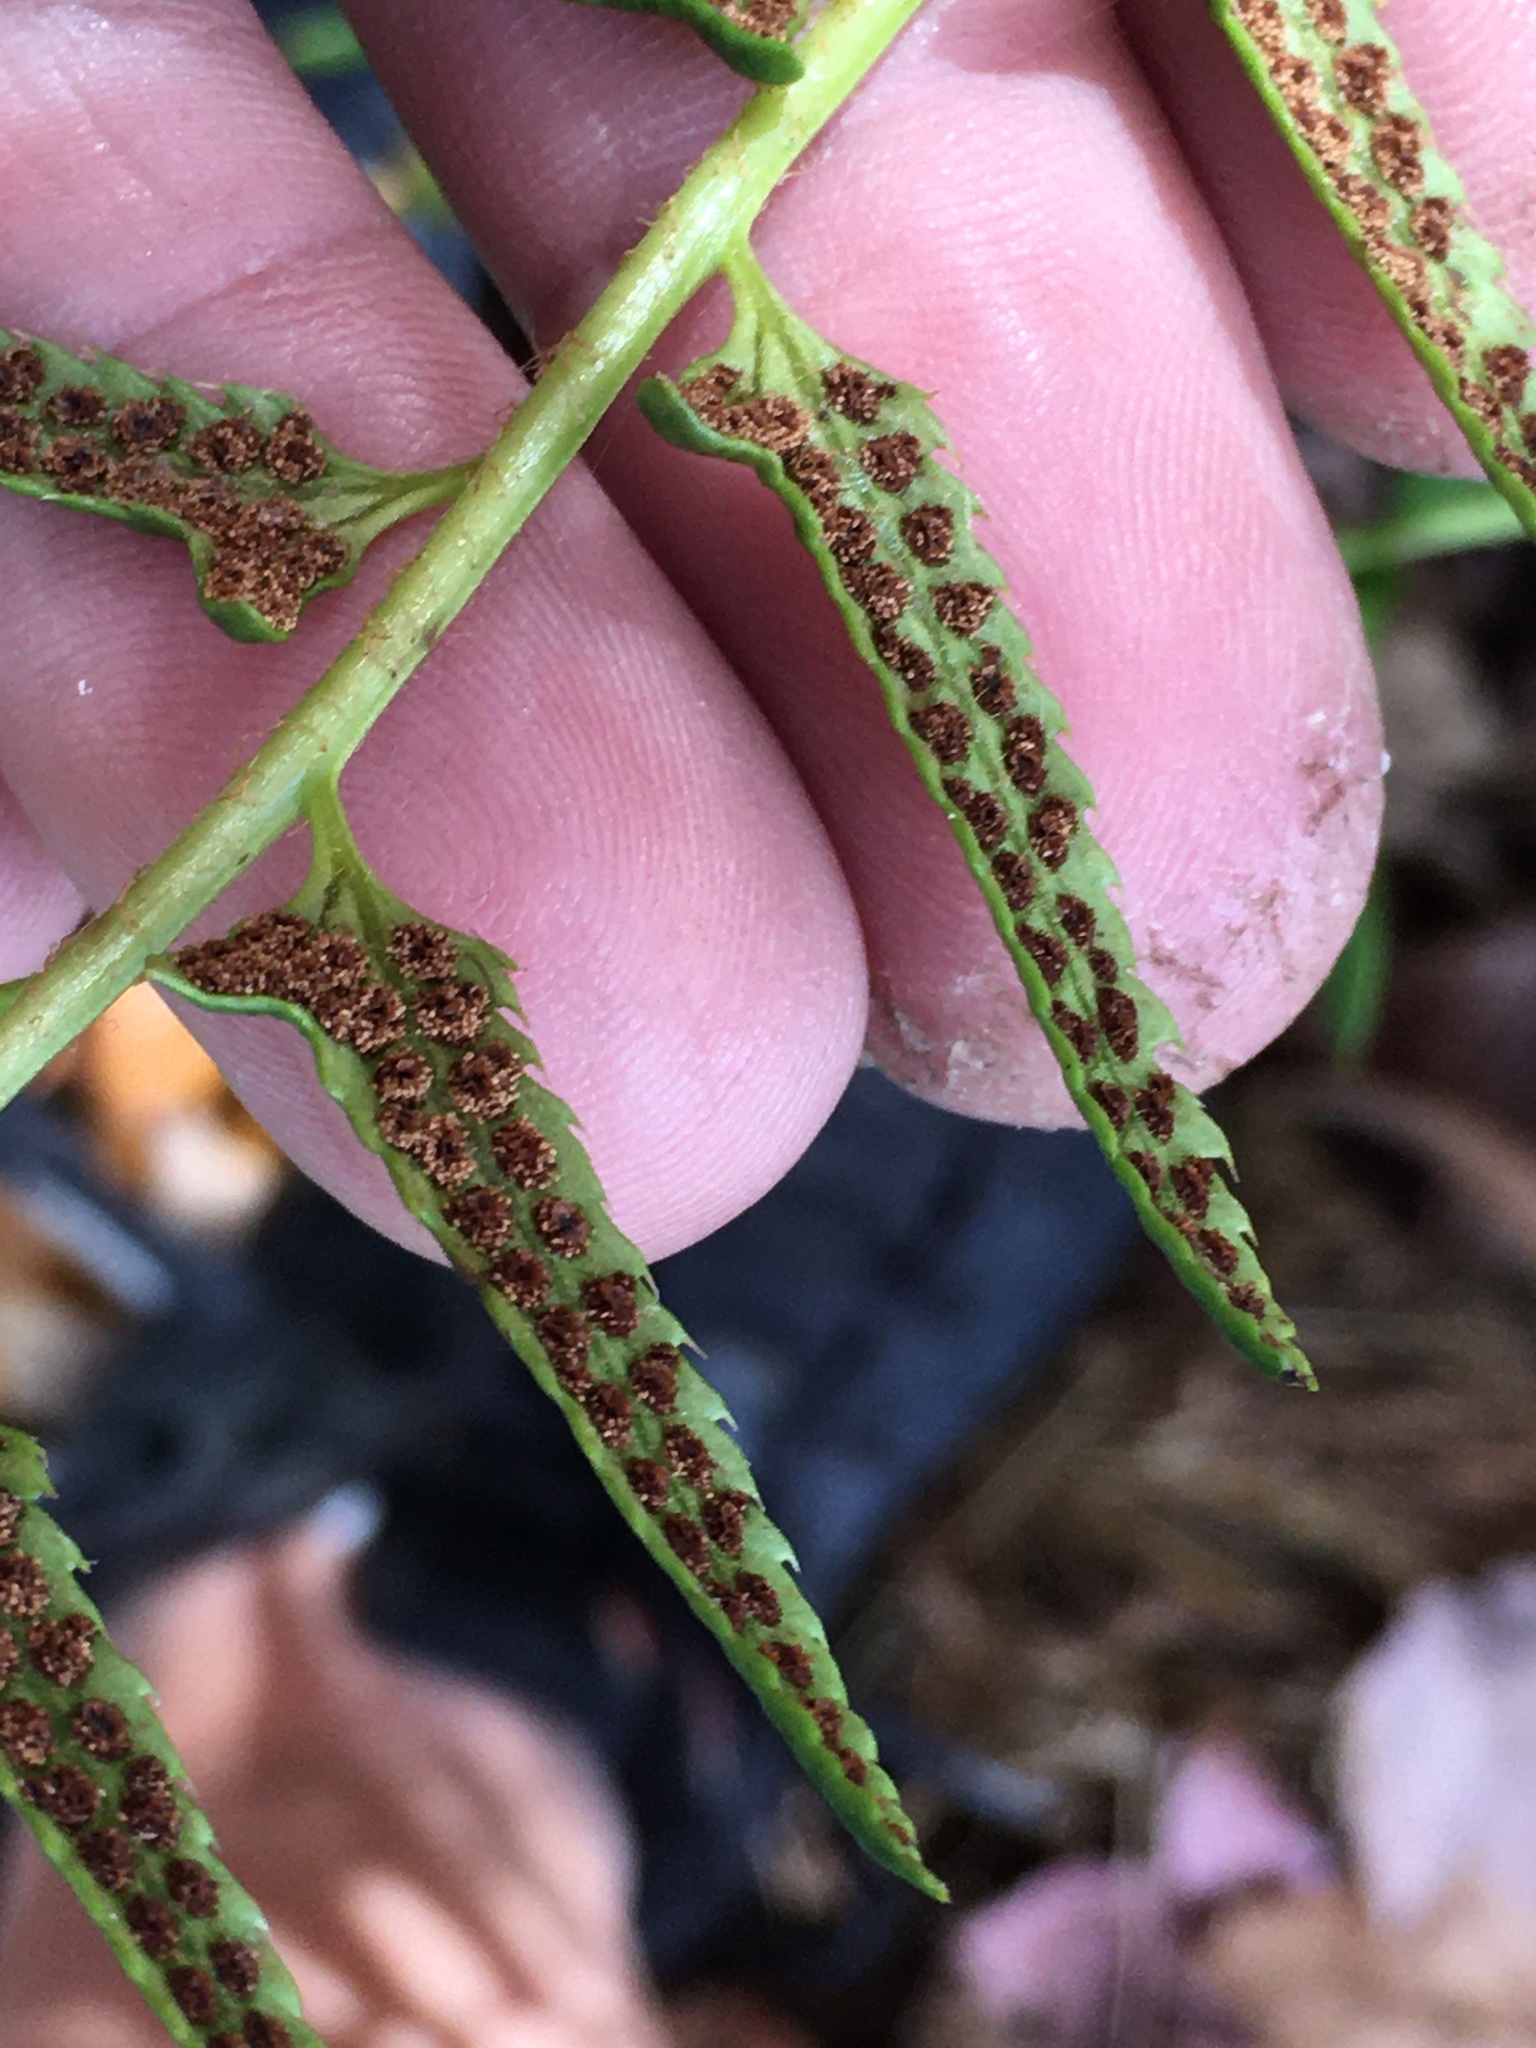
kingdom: Plantae
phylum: Tracheophyta
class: Polypodiopsida
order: Polypodiales
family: Dryopteridaceae
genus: Polystichum
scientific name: Polystichum acrostichoides
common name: Christmas fern
